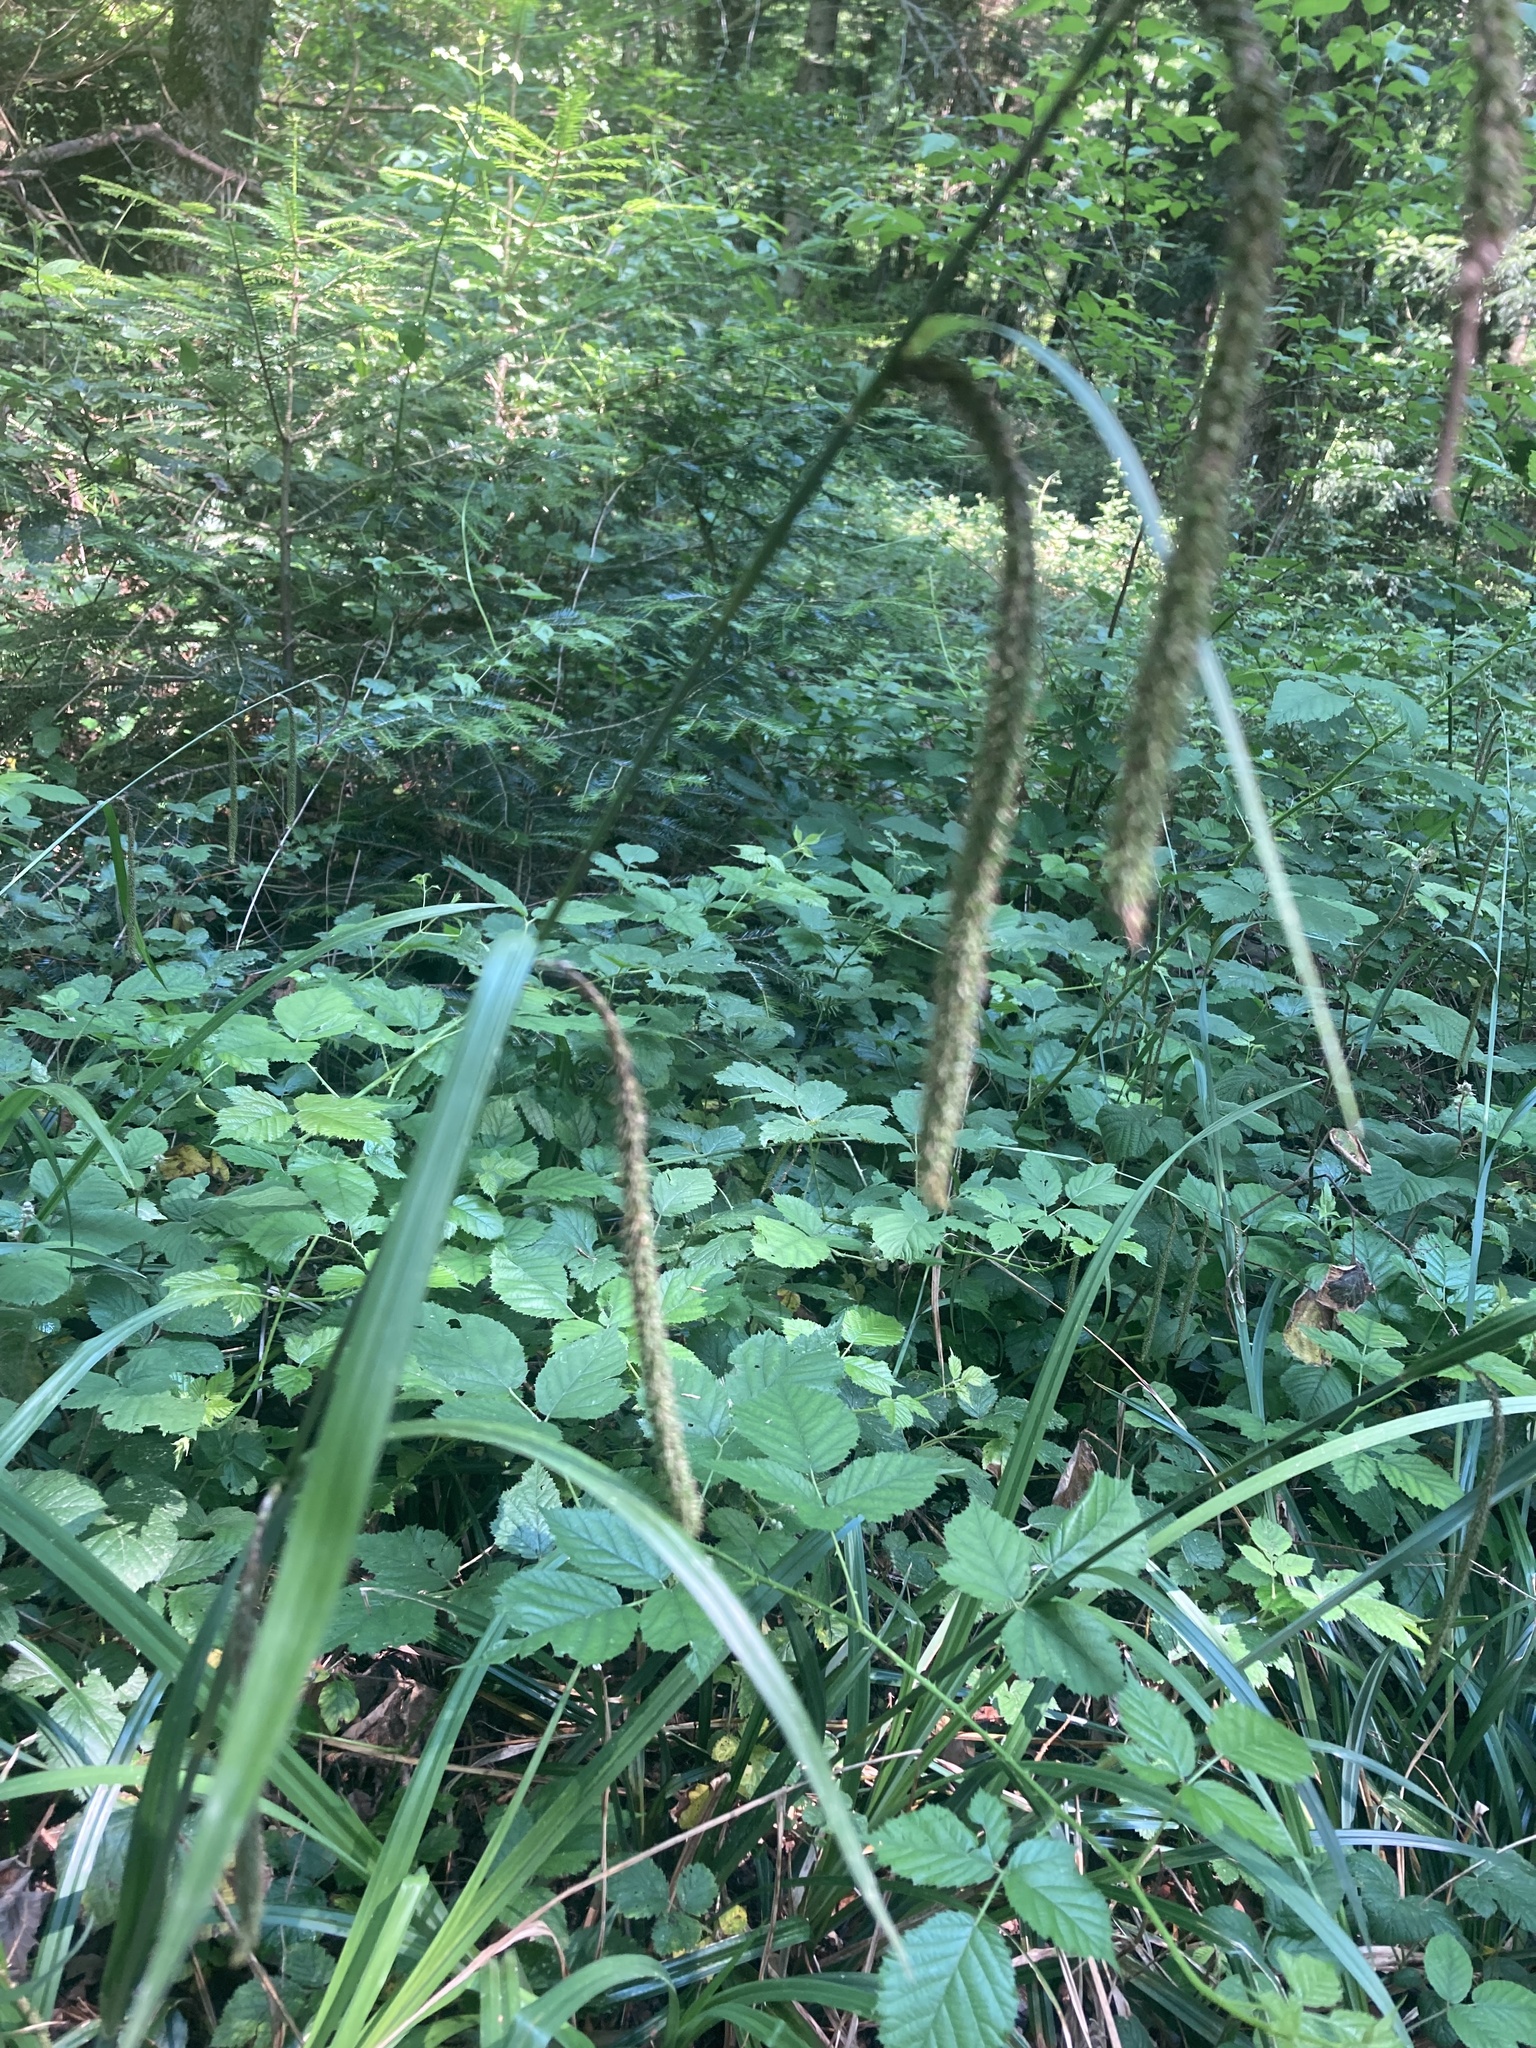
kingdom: Plantae
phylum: Tracheophyta
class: Liliopsida
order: Poales
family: Cyperaceae
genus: Carex
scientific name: Carex pendula
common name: Pendulous sedge
